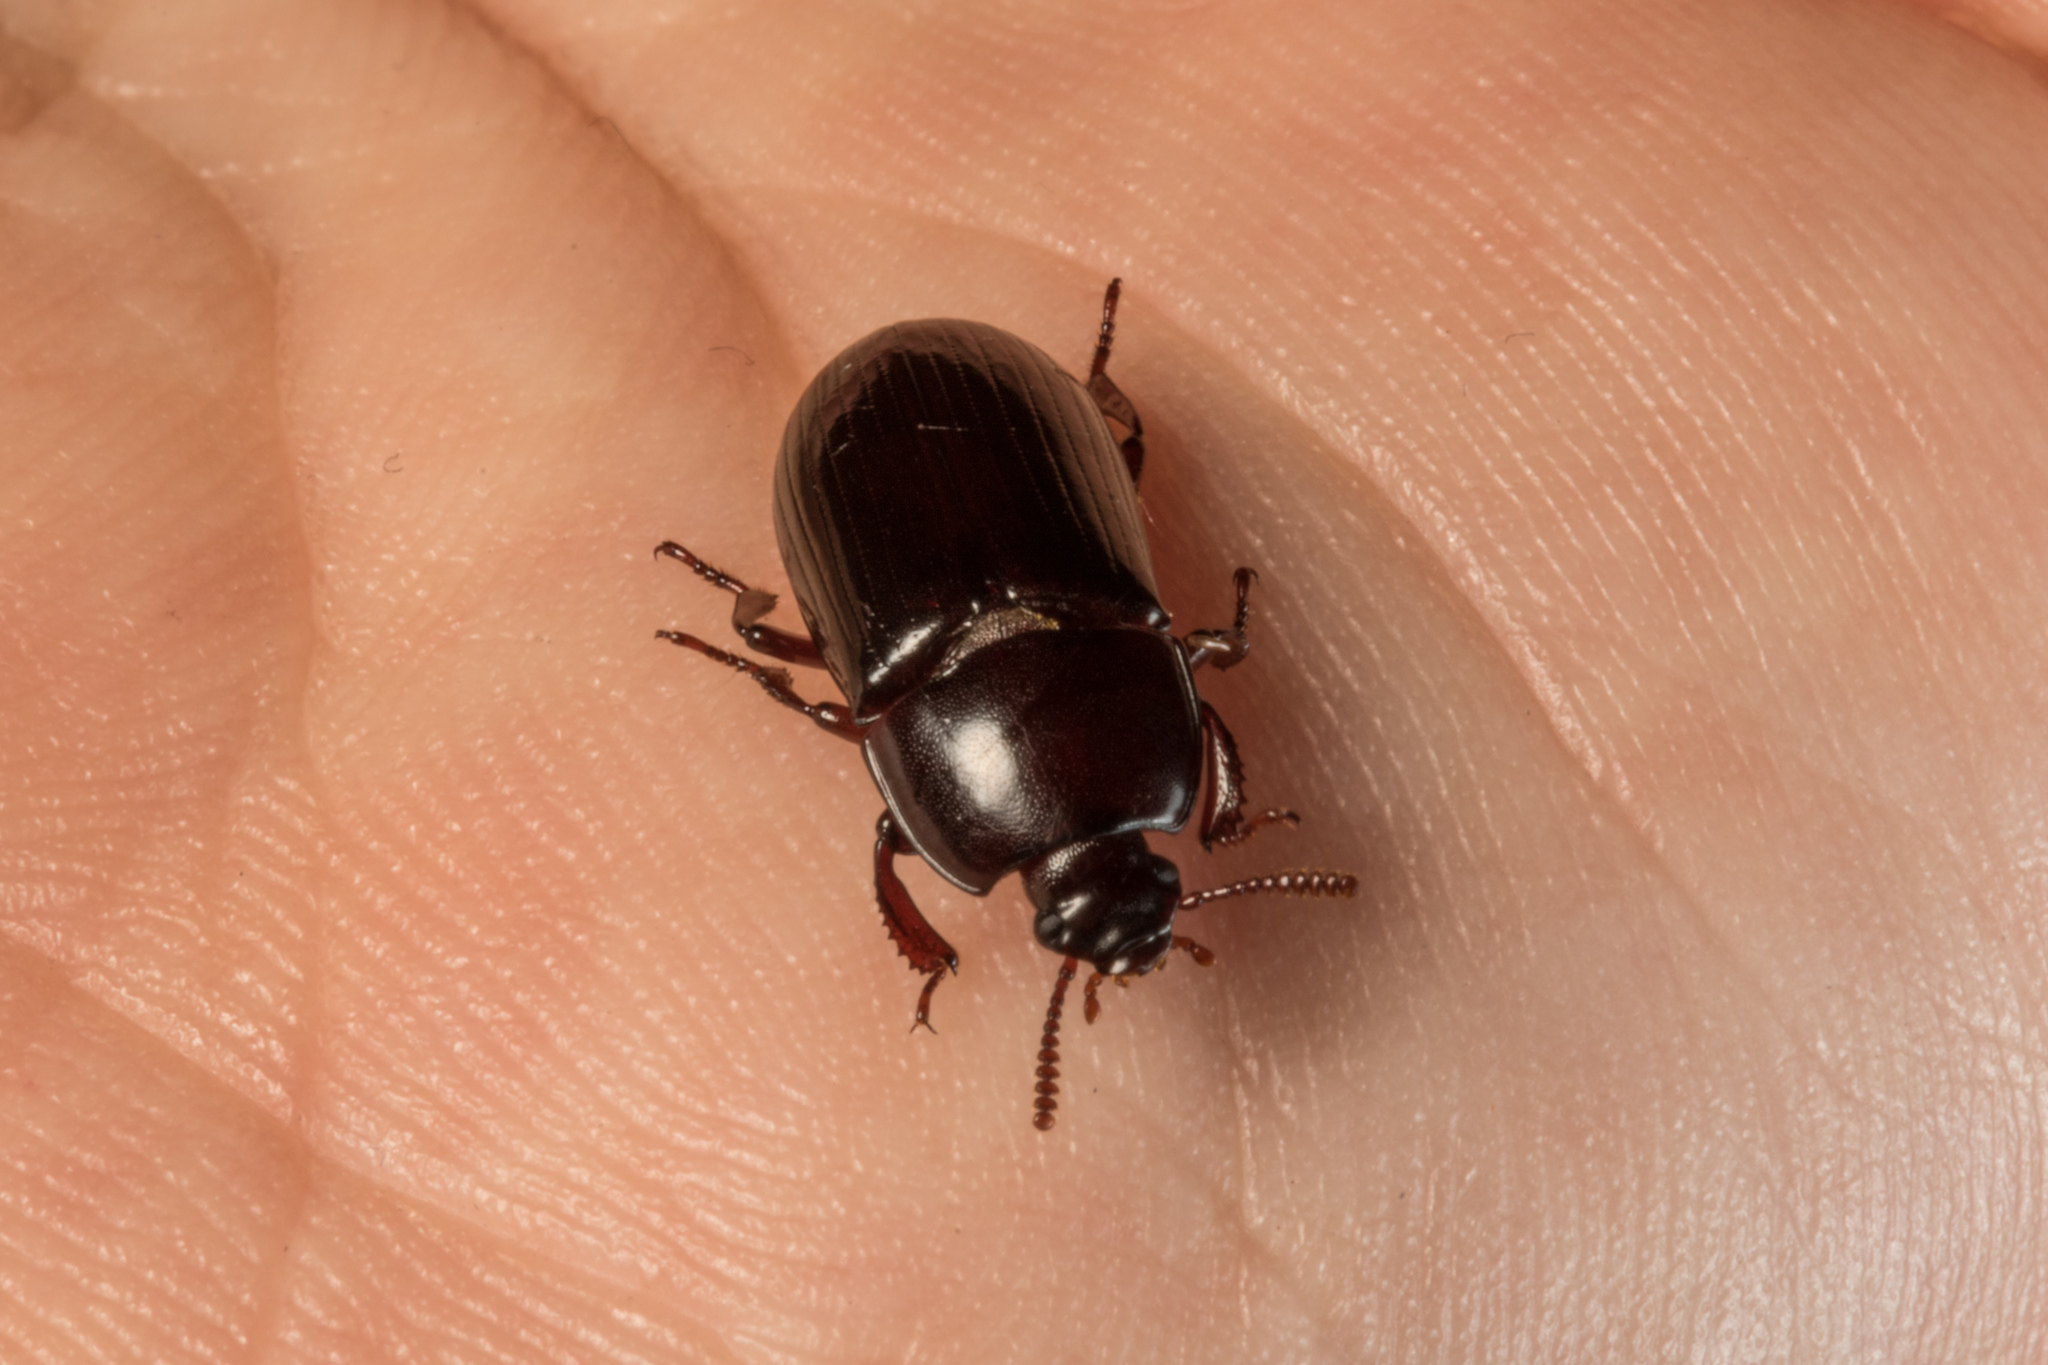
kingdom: Animalia
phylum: Arthropoda
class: Insecta
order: Coleoptera
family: Tenebrionidae
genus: Uloma
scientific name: Uloma tenebrionoides
